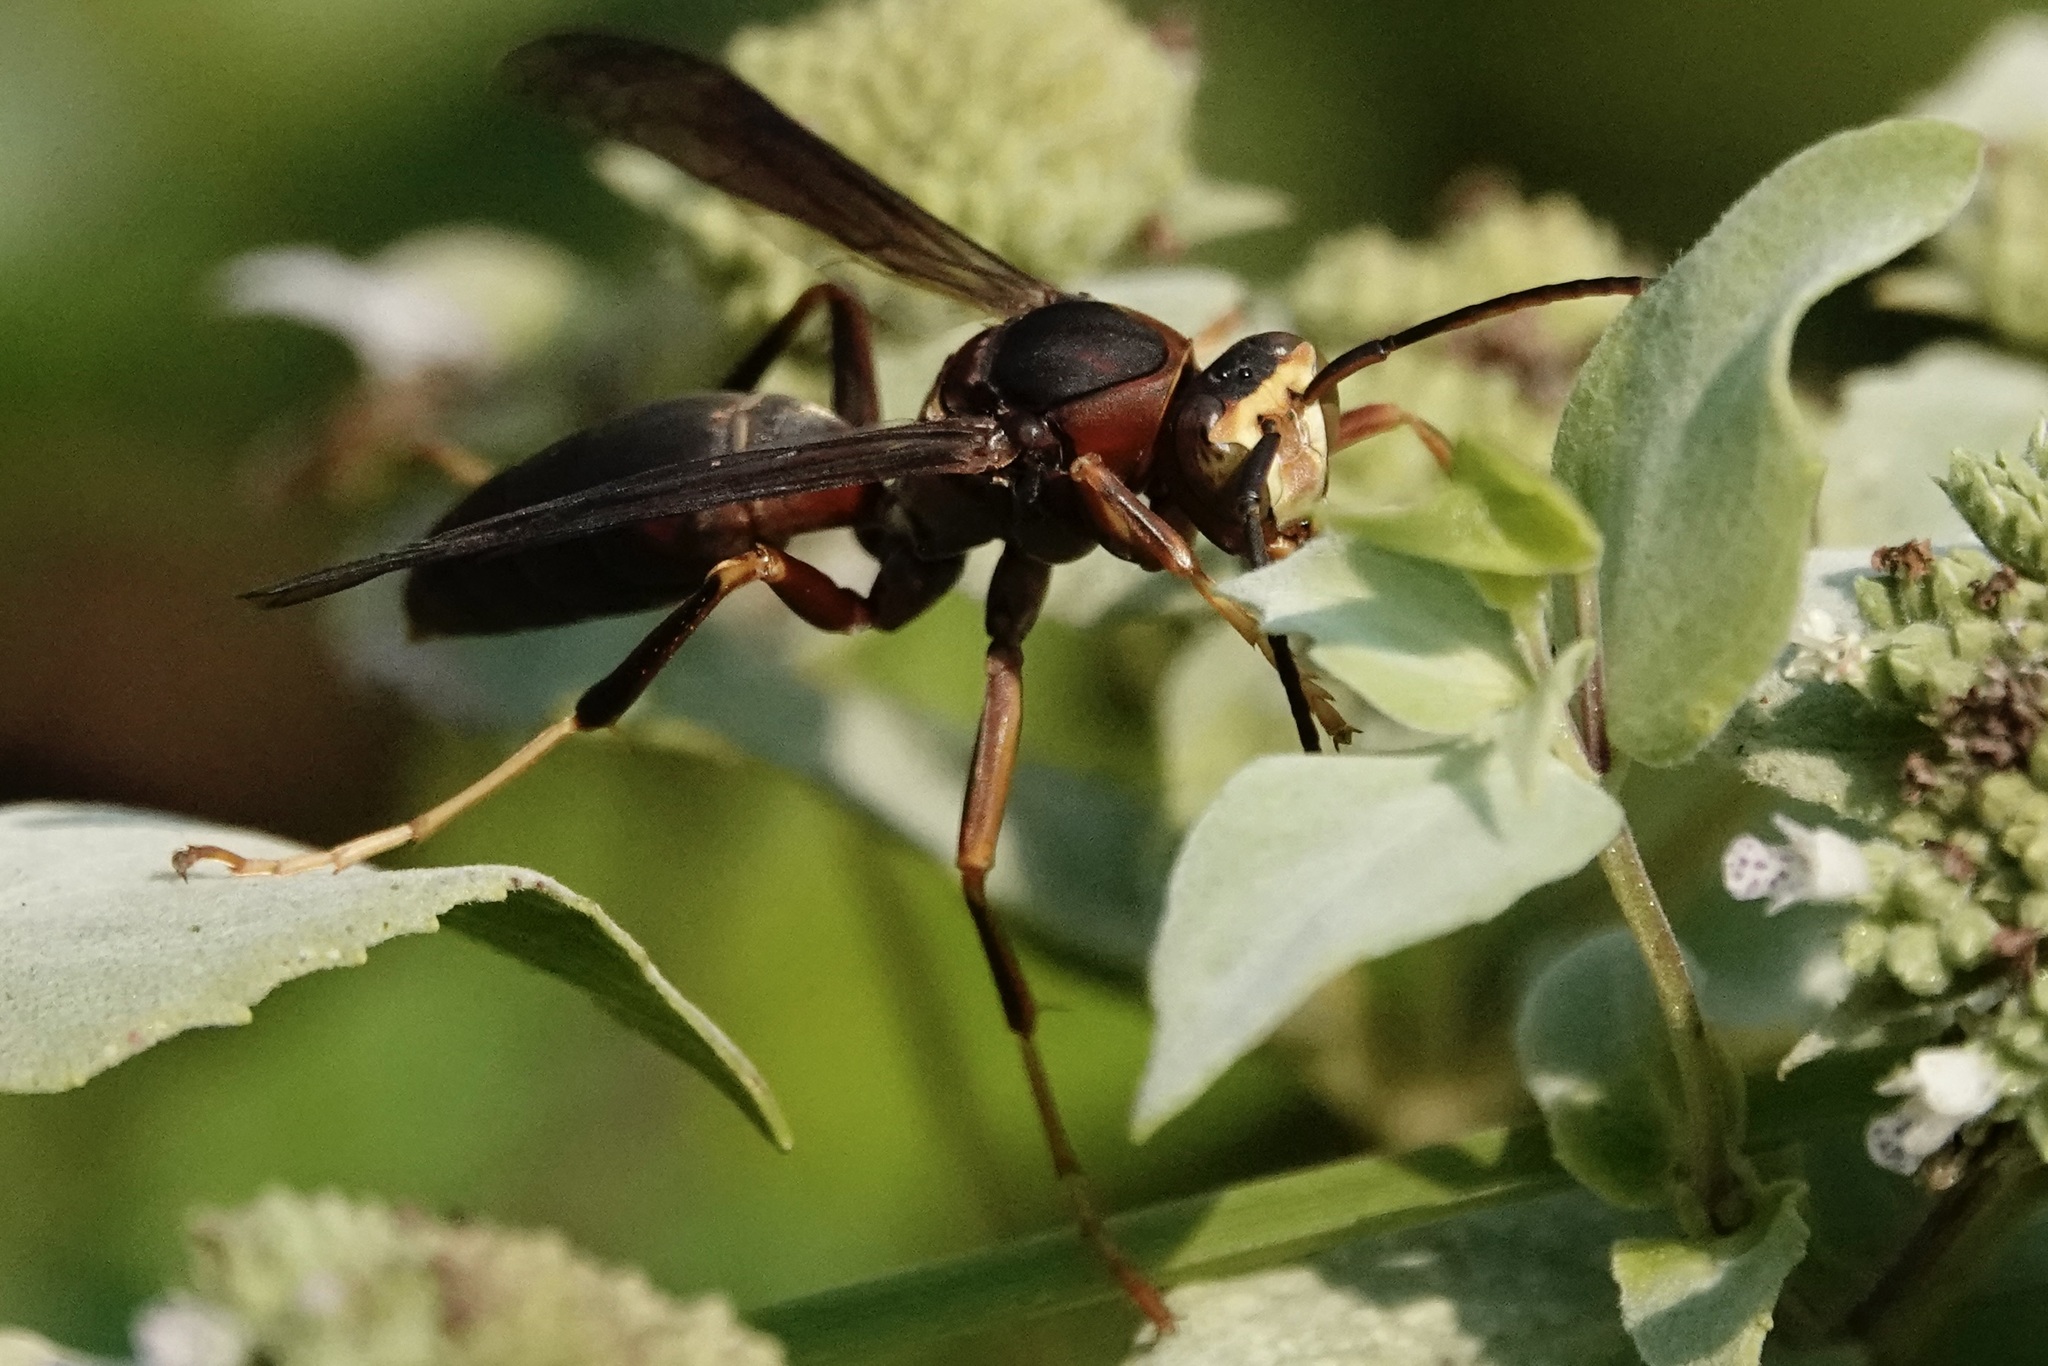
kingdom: Animalia
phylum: Arthropoda
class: Insecta
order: Hymenoptera
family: Eumenidae
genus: Polistes
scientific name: Polistes metricus
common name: Metric paper wasp
